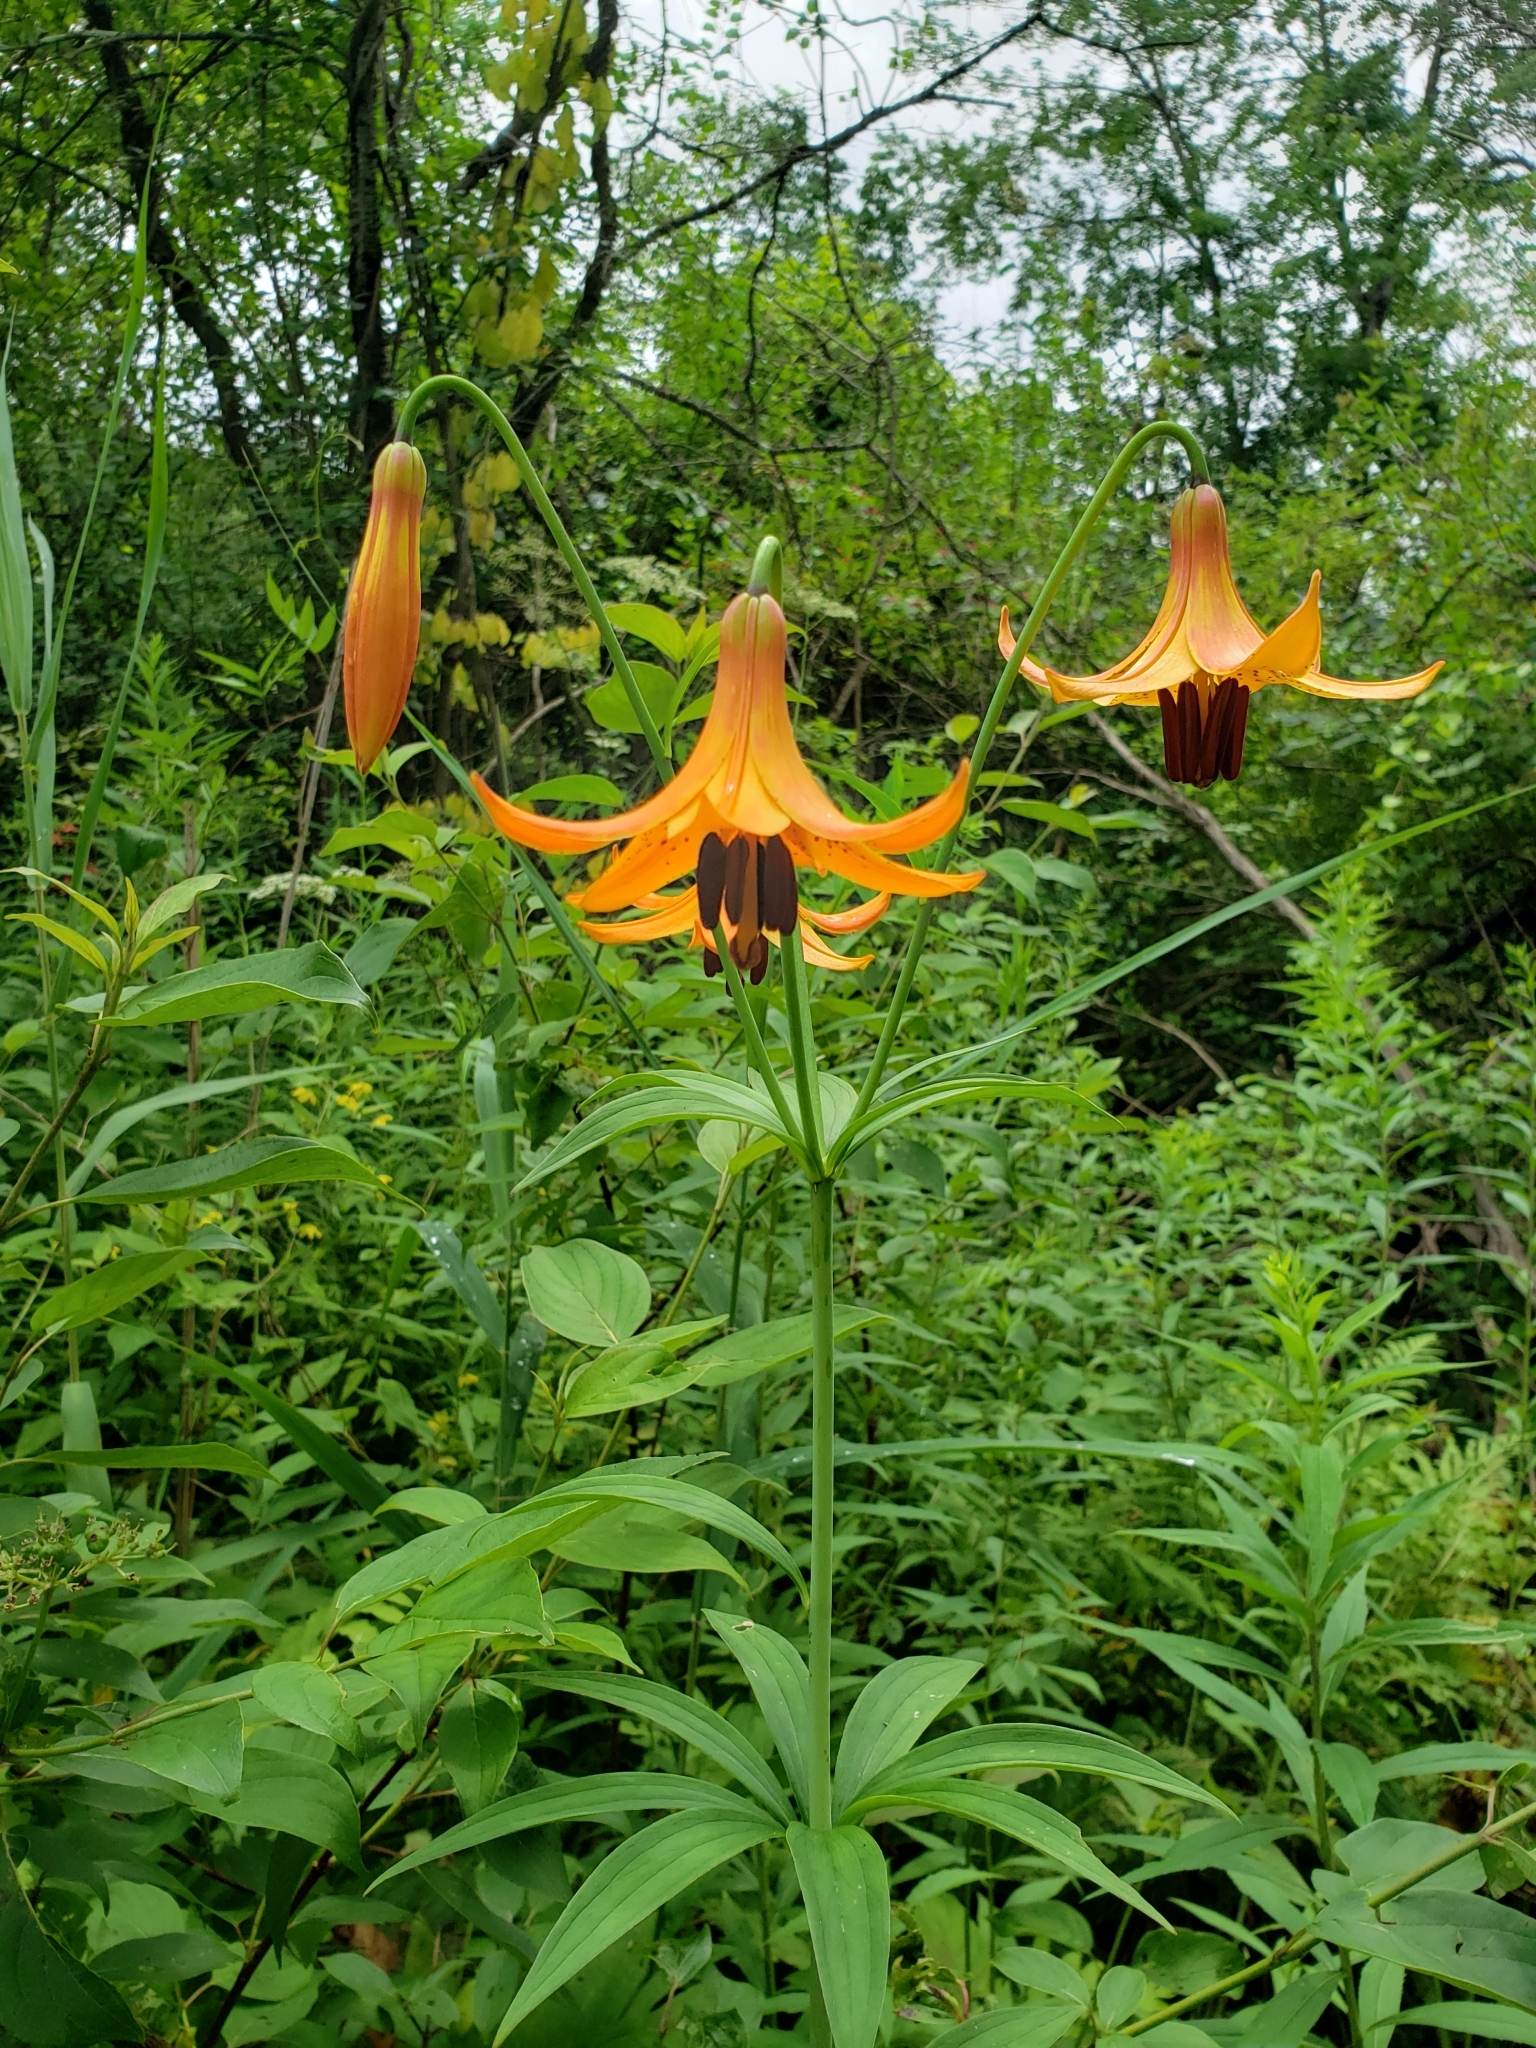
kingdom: Plantae
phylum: Tracheophyta
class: Liliopsida
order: Liliales
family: Liliaceae
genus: Lilium
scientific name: Lilium canadense
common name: Canada lily
